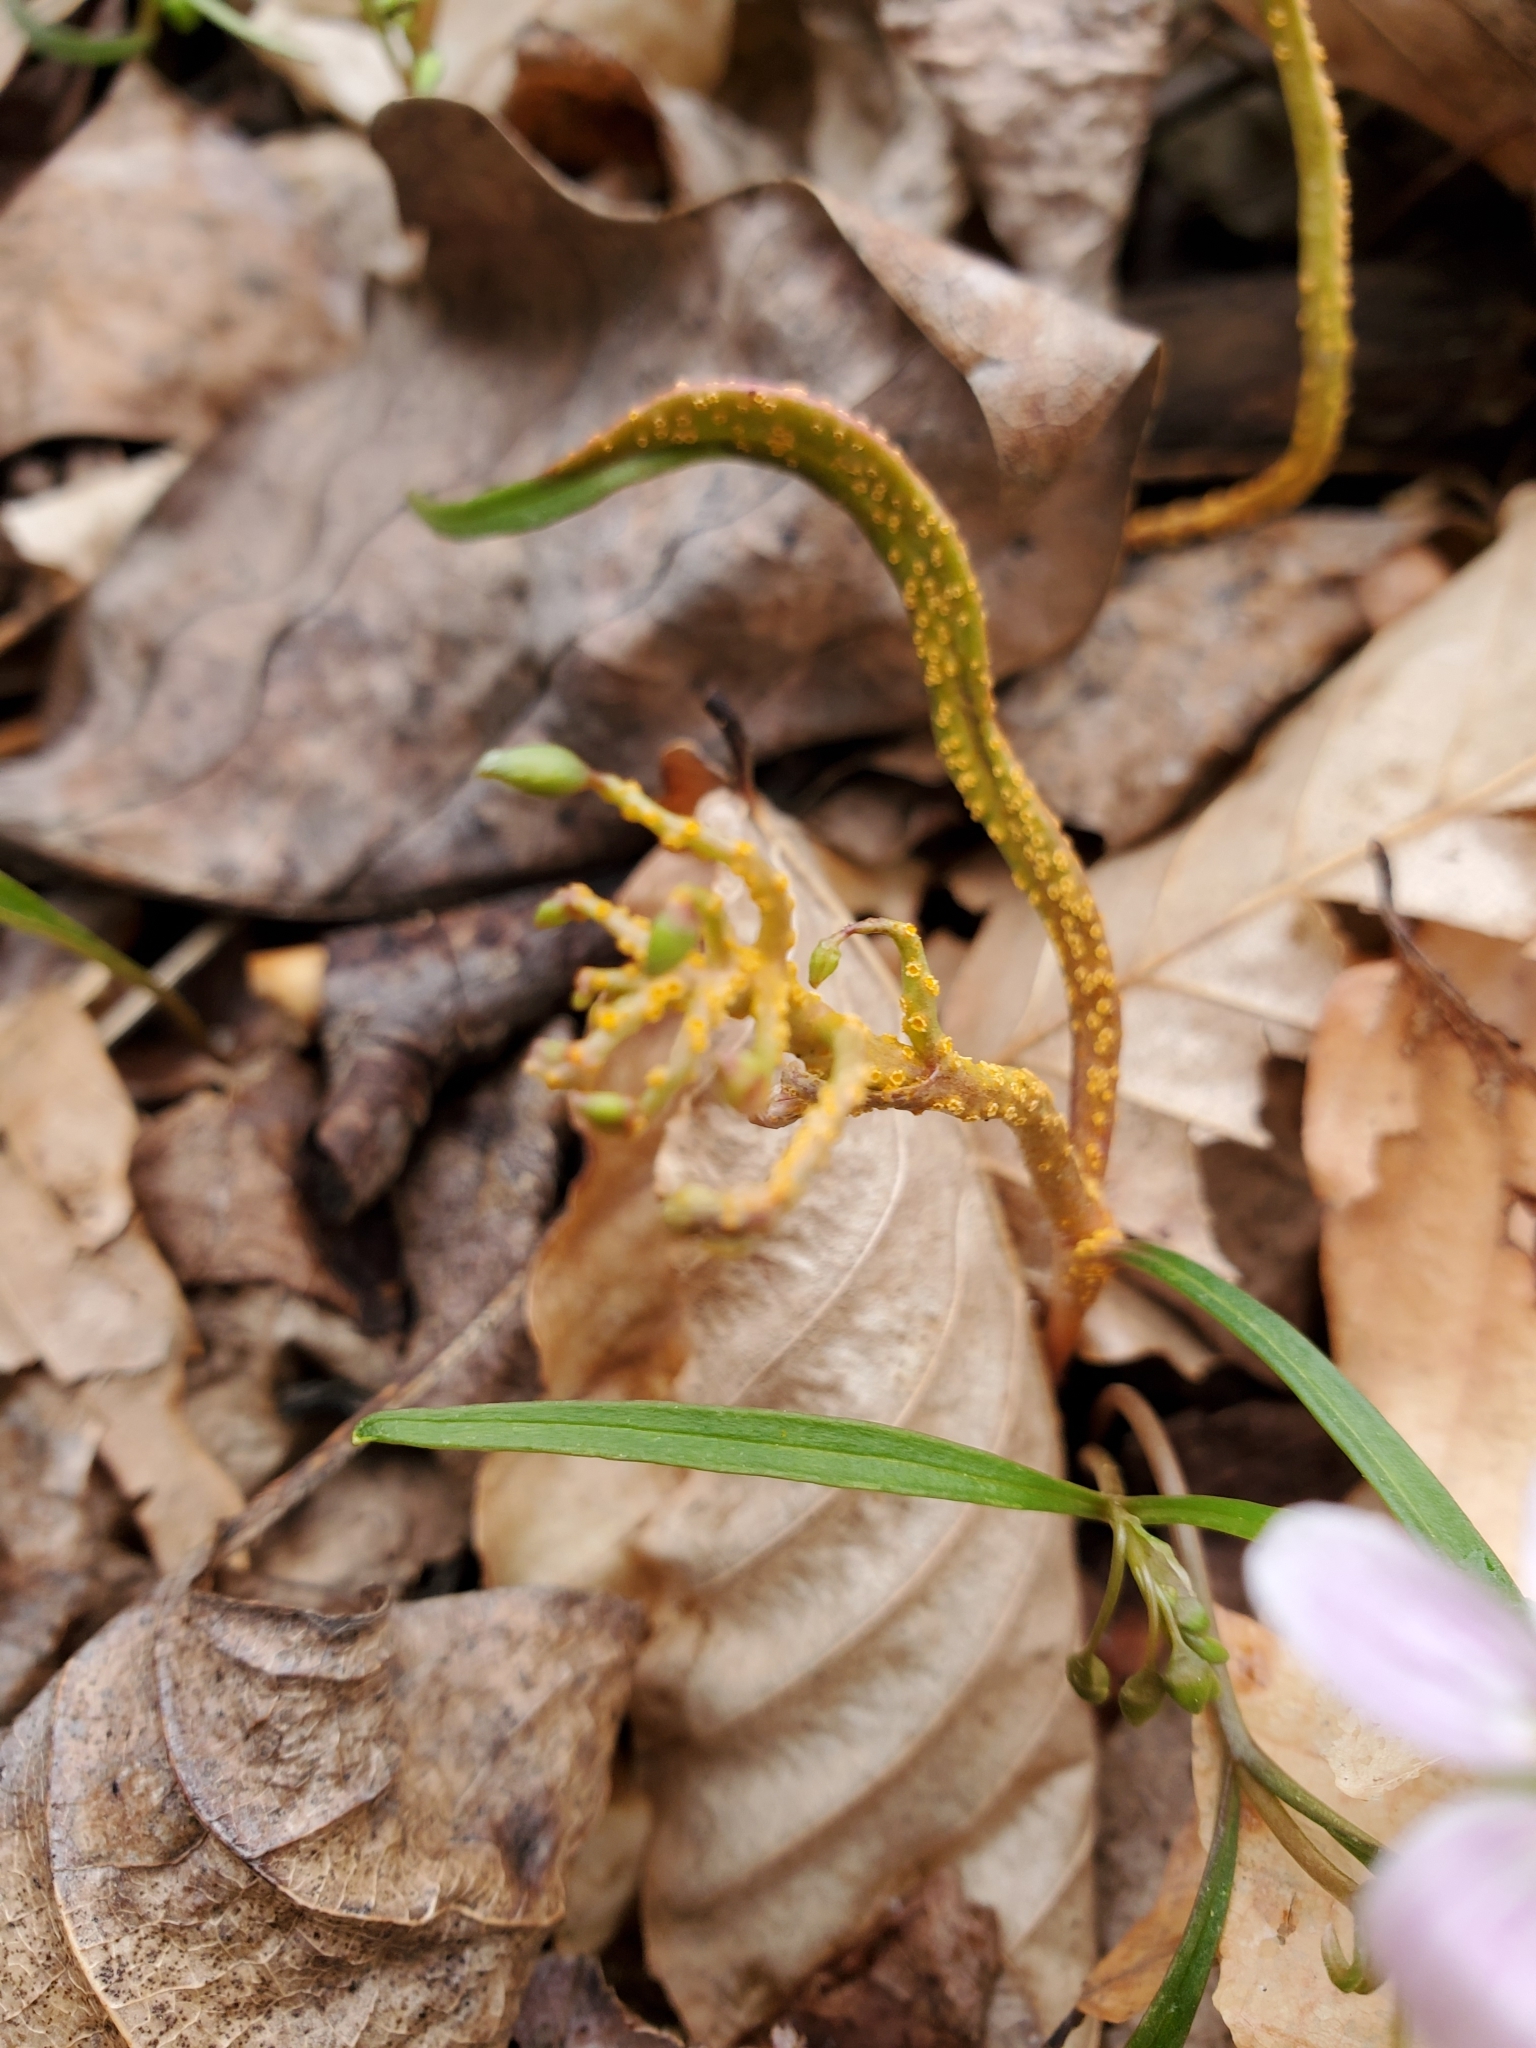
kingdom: Plantae
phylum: Tracheophyta
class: Magnoliopsida
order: Caryophyllales
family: Montiaceae
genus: Claytonia
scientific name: Claytonia virginica
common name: Virginia springbeauty
